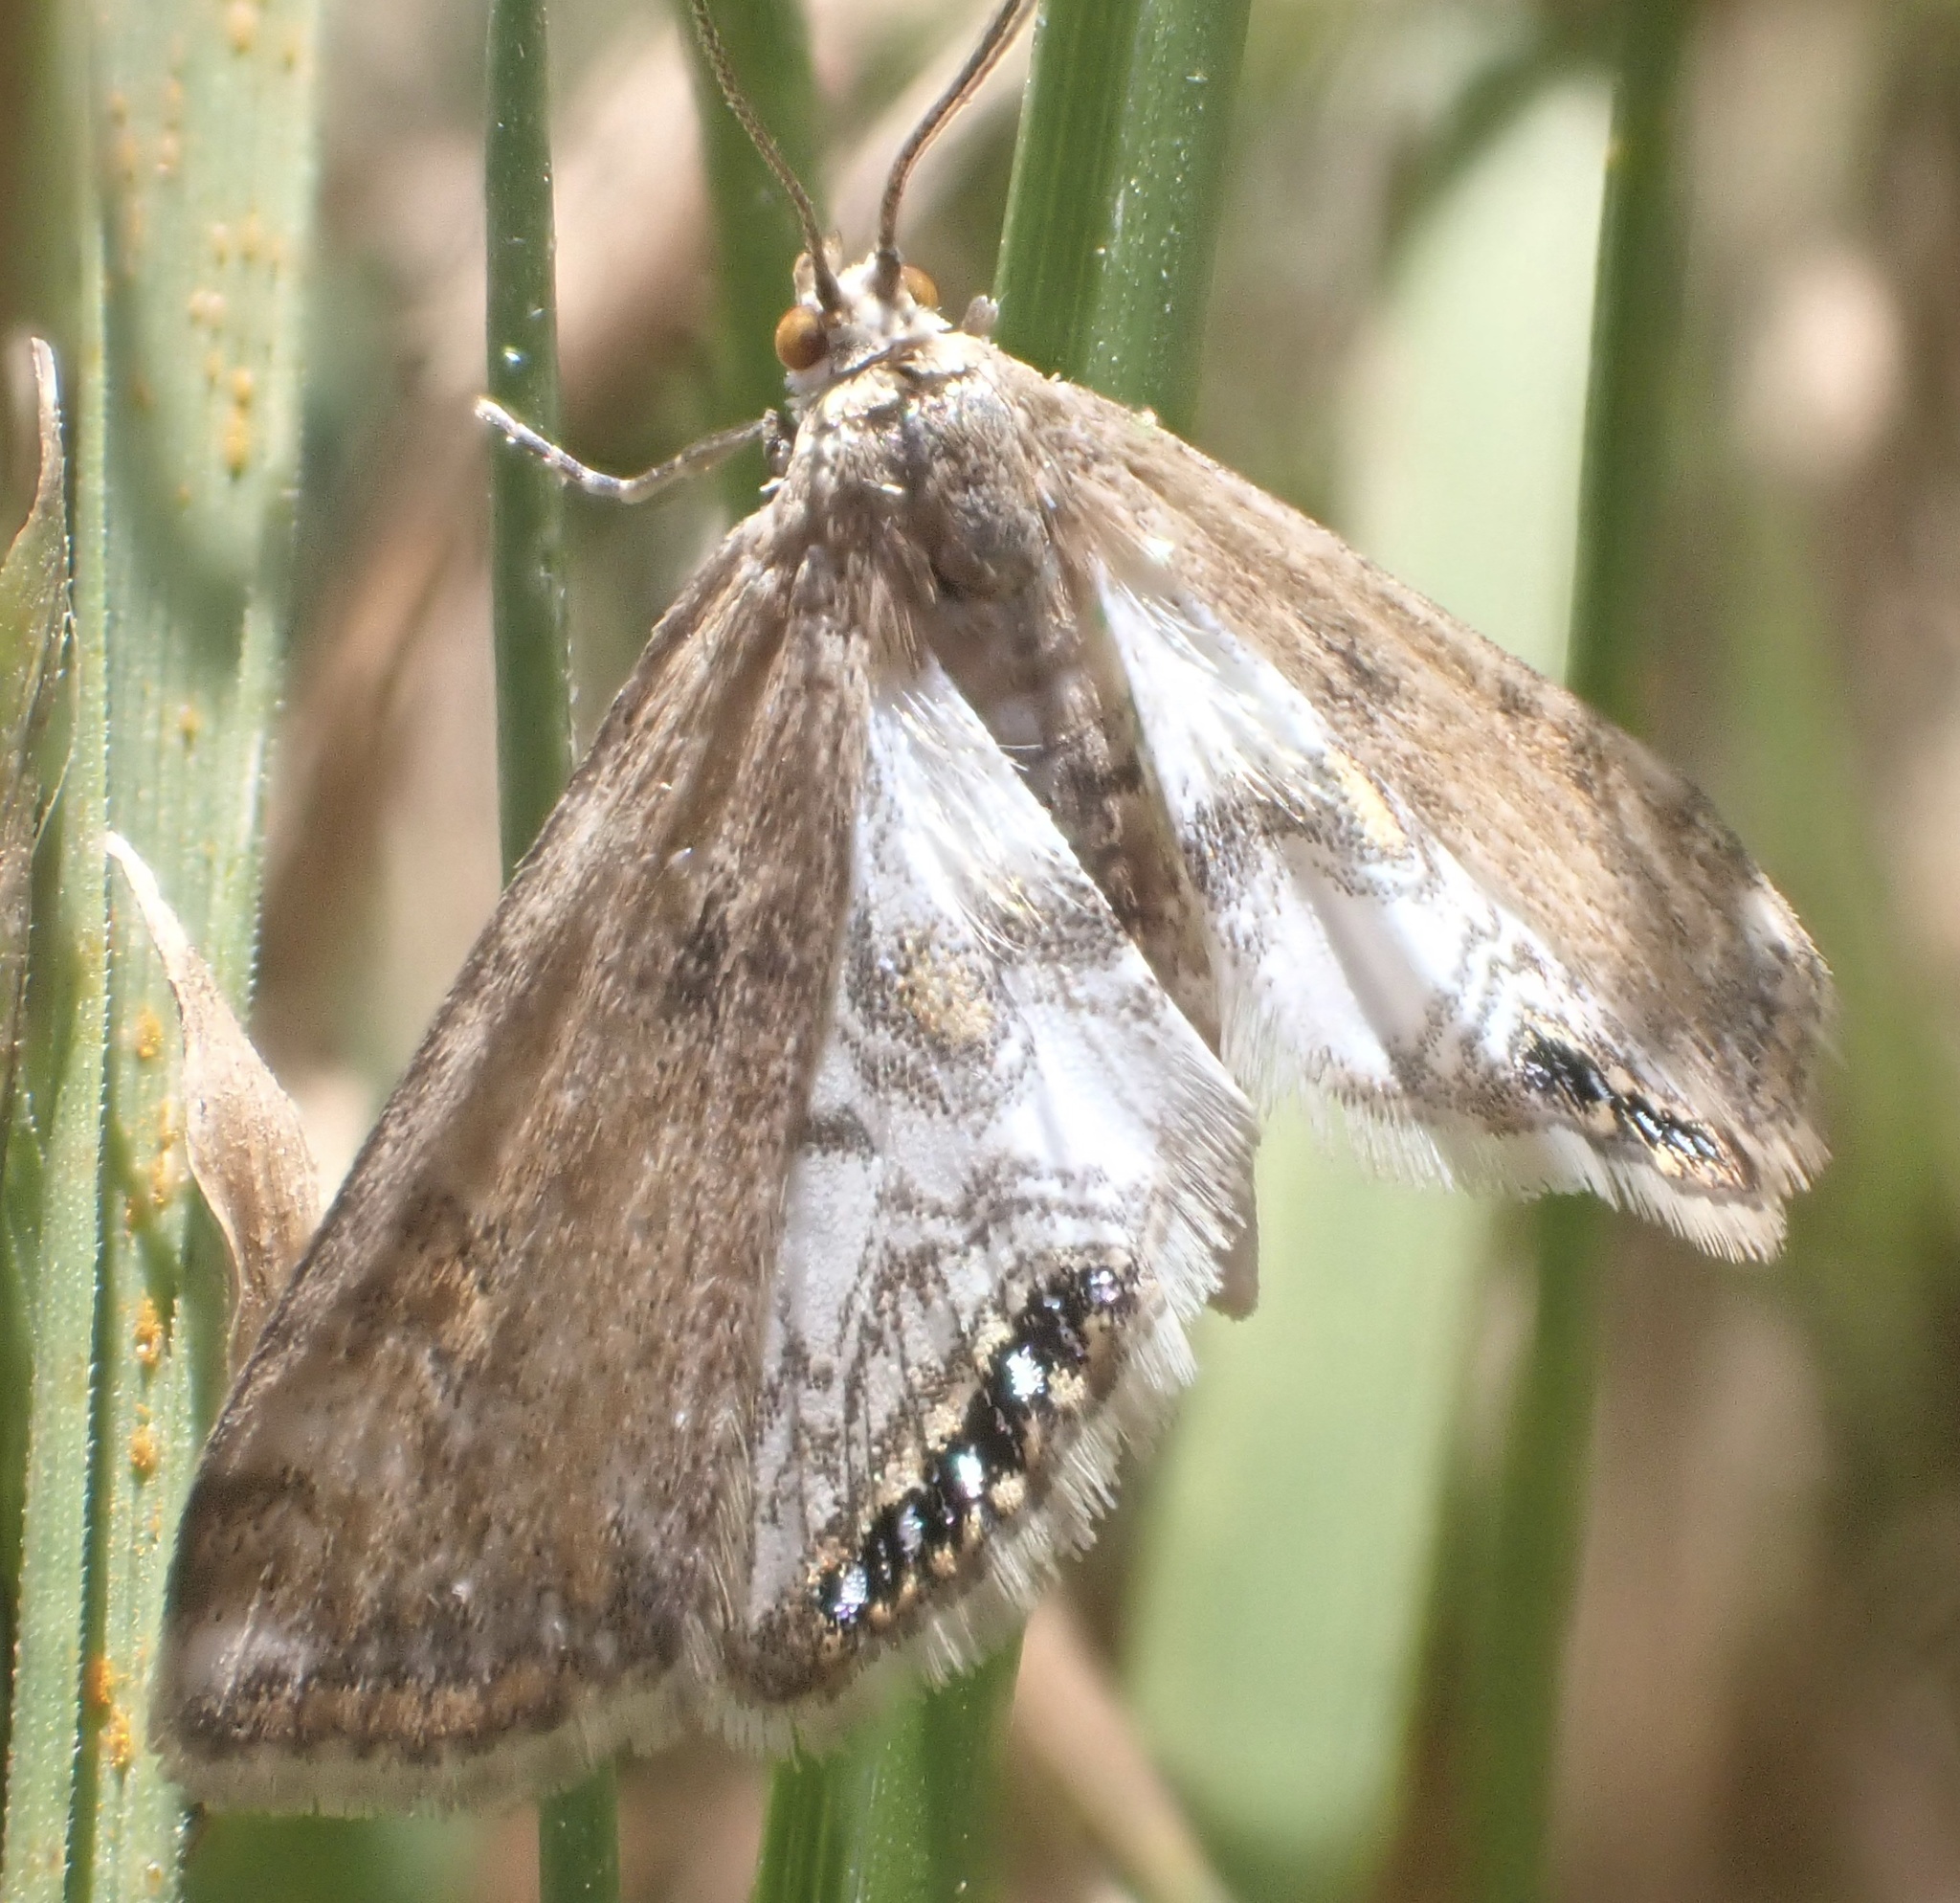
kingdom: Animalia
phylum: Arthropoda
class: Insecta
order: Lepidoptera
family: Crambidae
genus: Cataclysta
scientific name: Cataclysta lemnata
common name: Small china-mark
